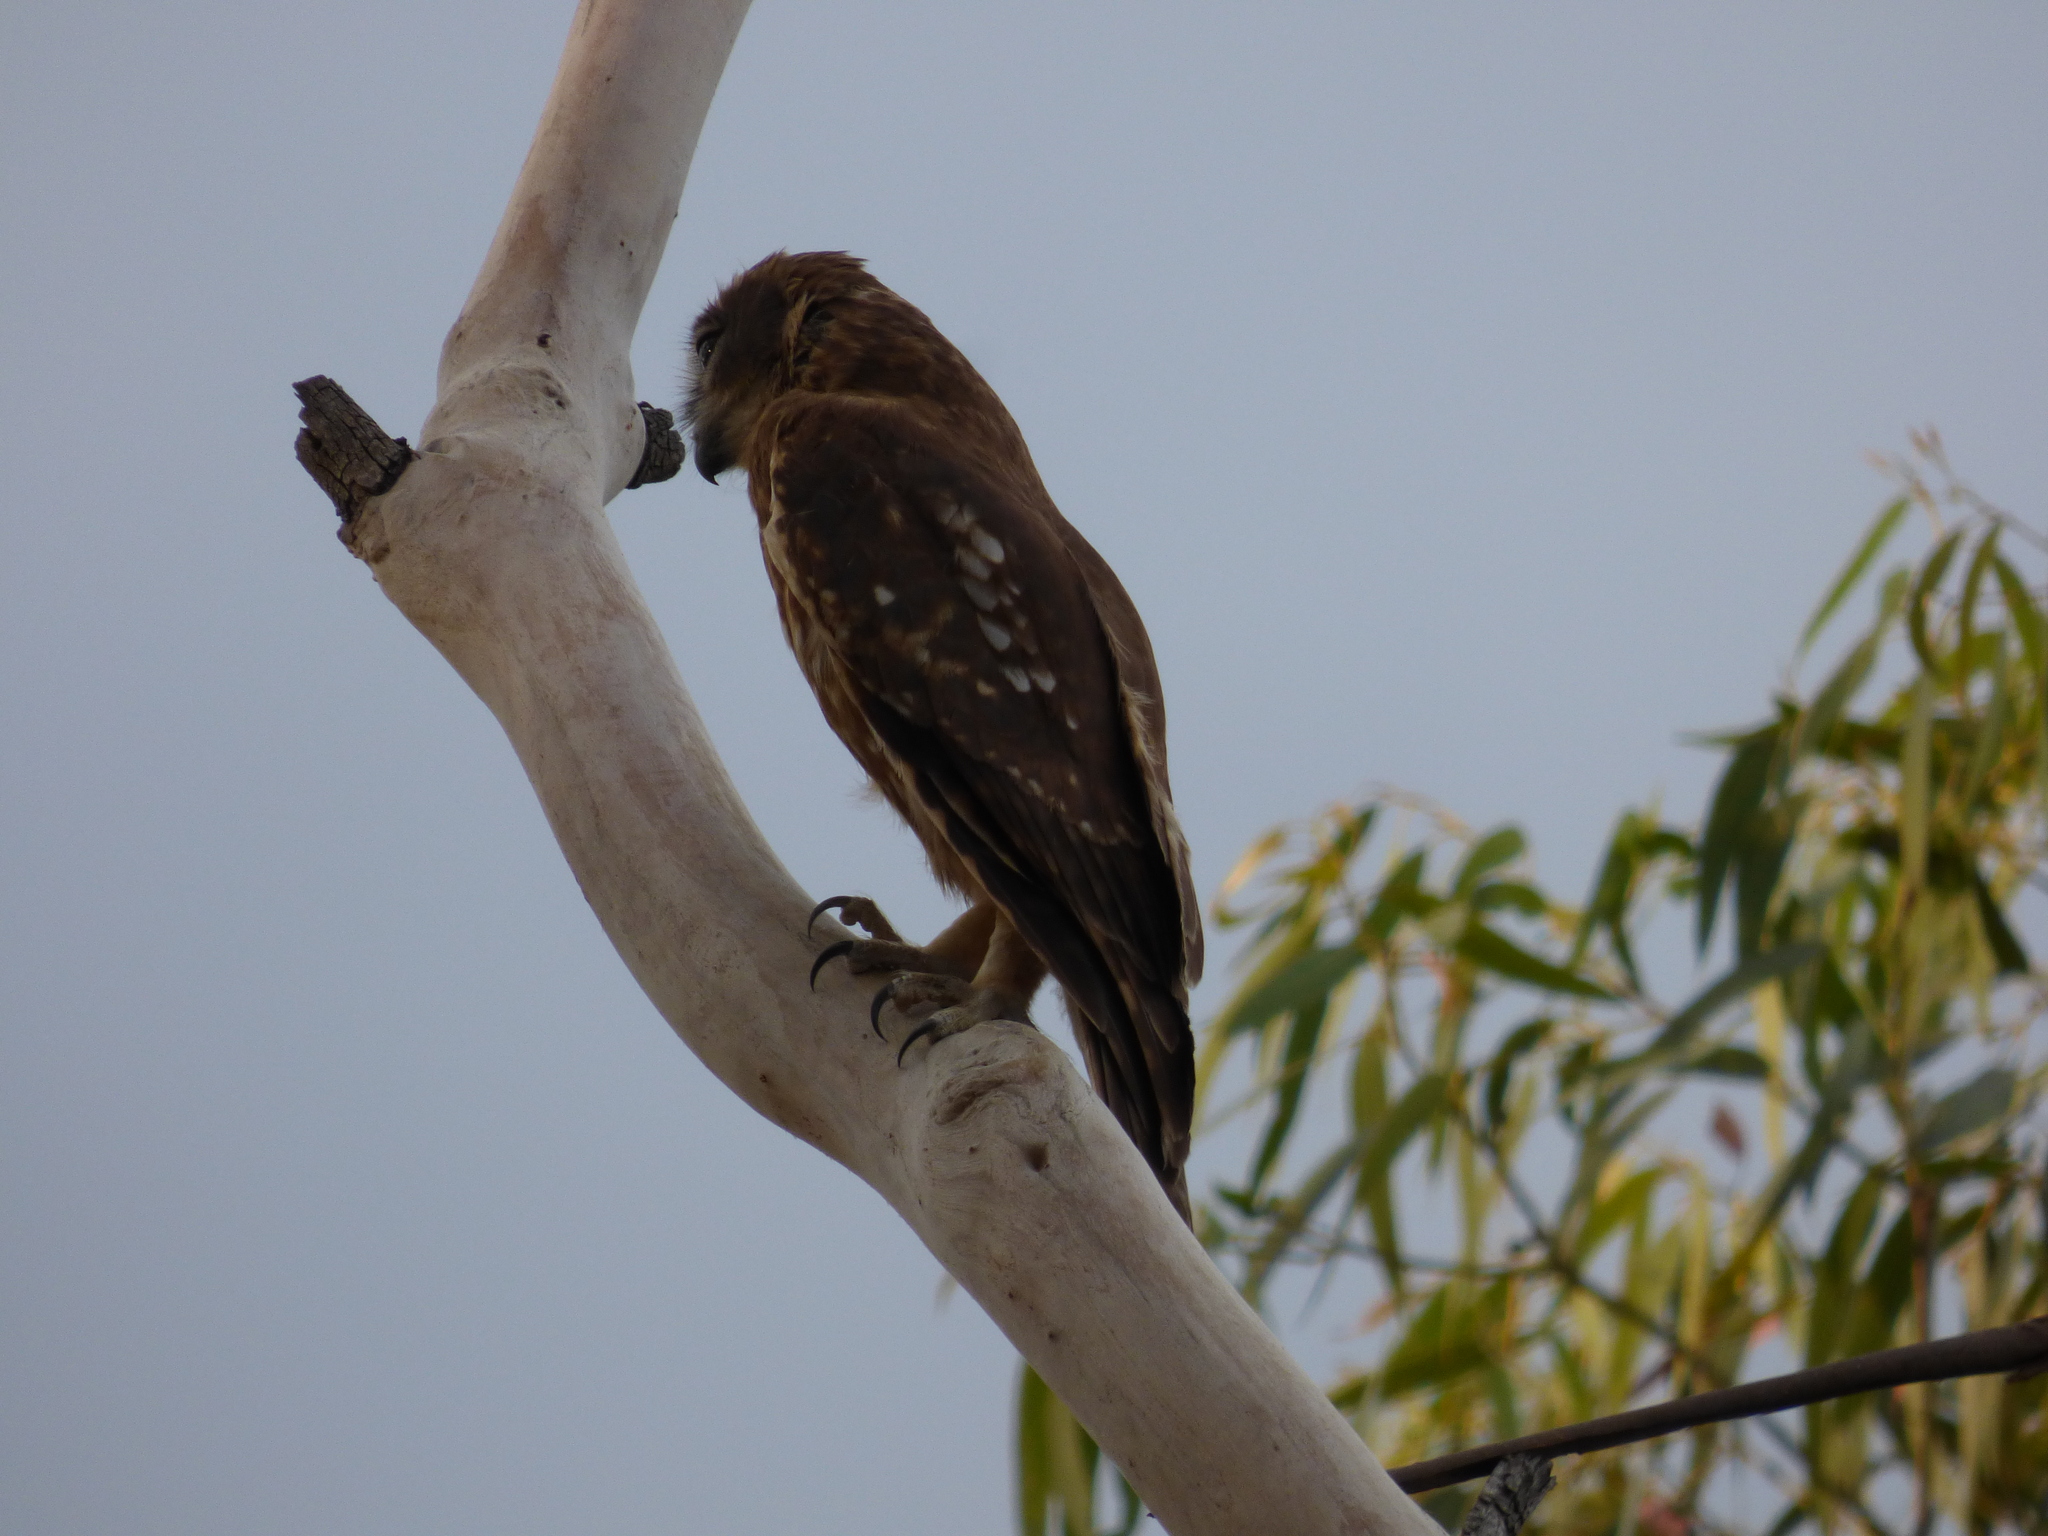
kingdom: Animalia
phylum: Chordata
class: Aves
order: Strigiformes
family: Strigidae
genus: Ninox
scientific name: Ninox boobook
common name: Southern boobook
